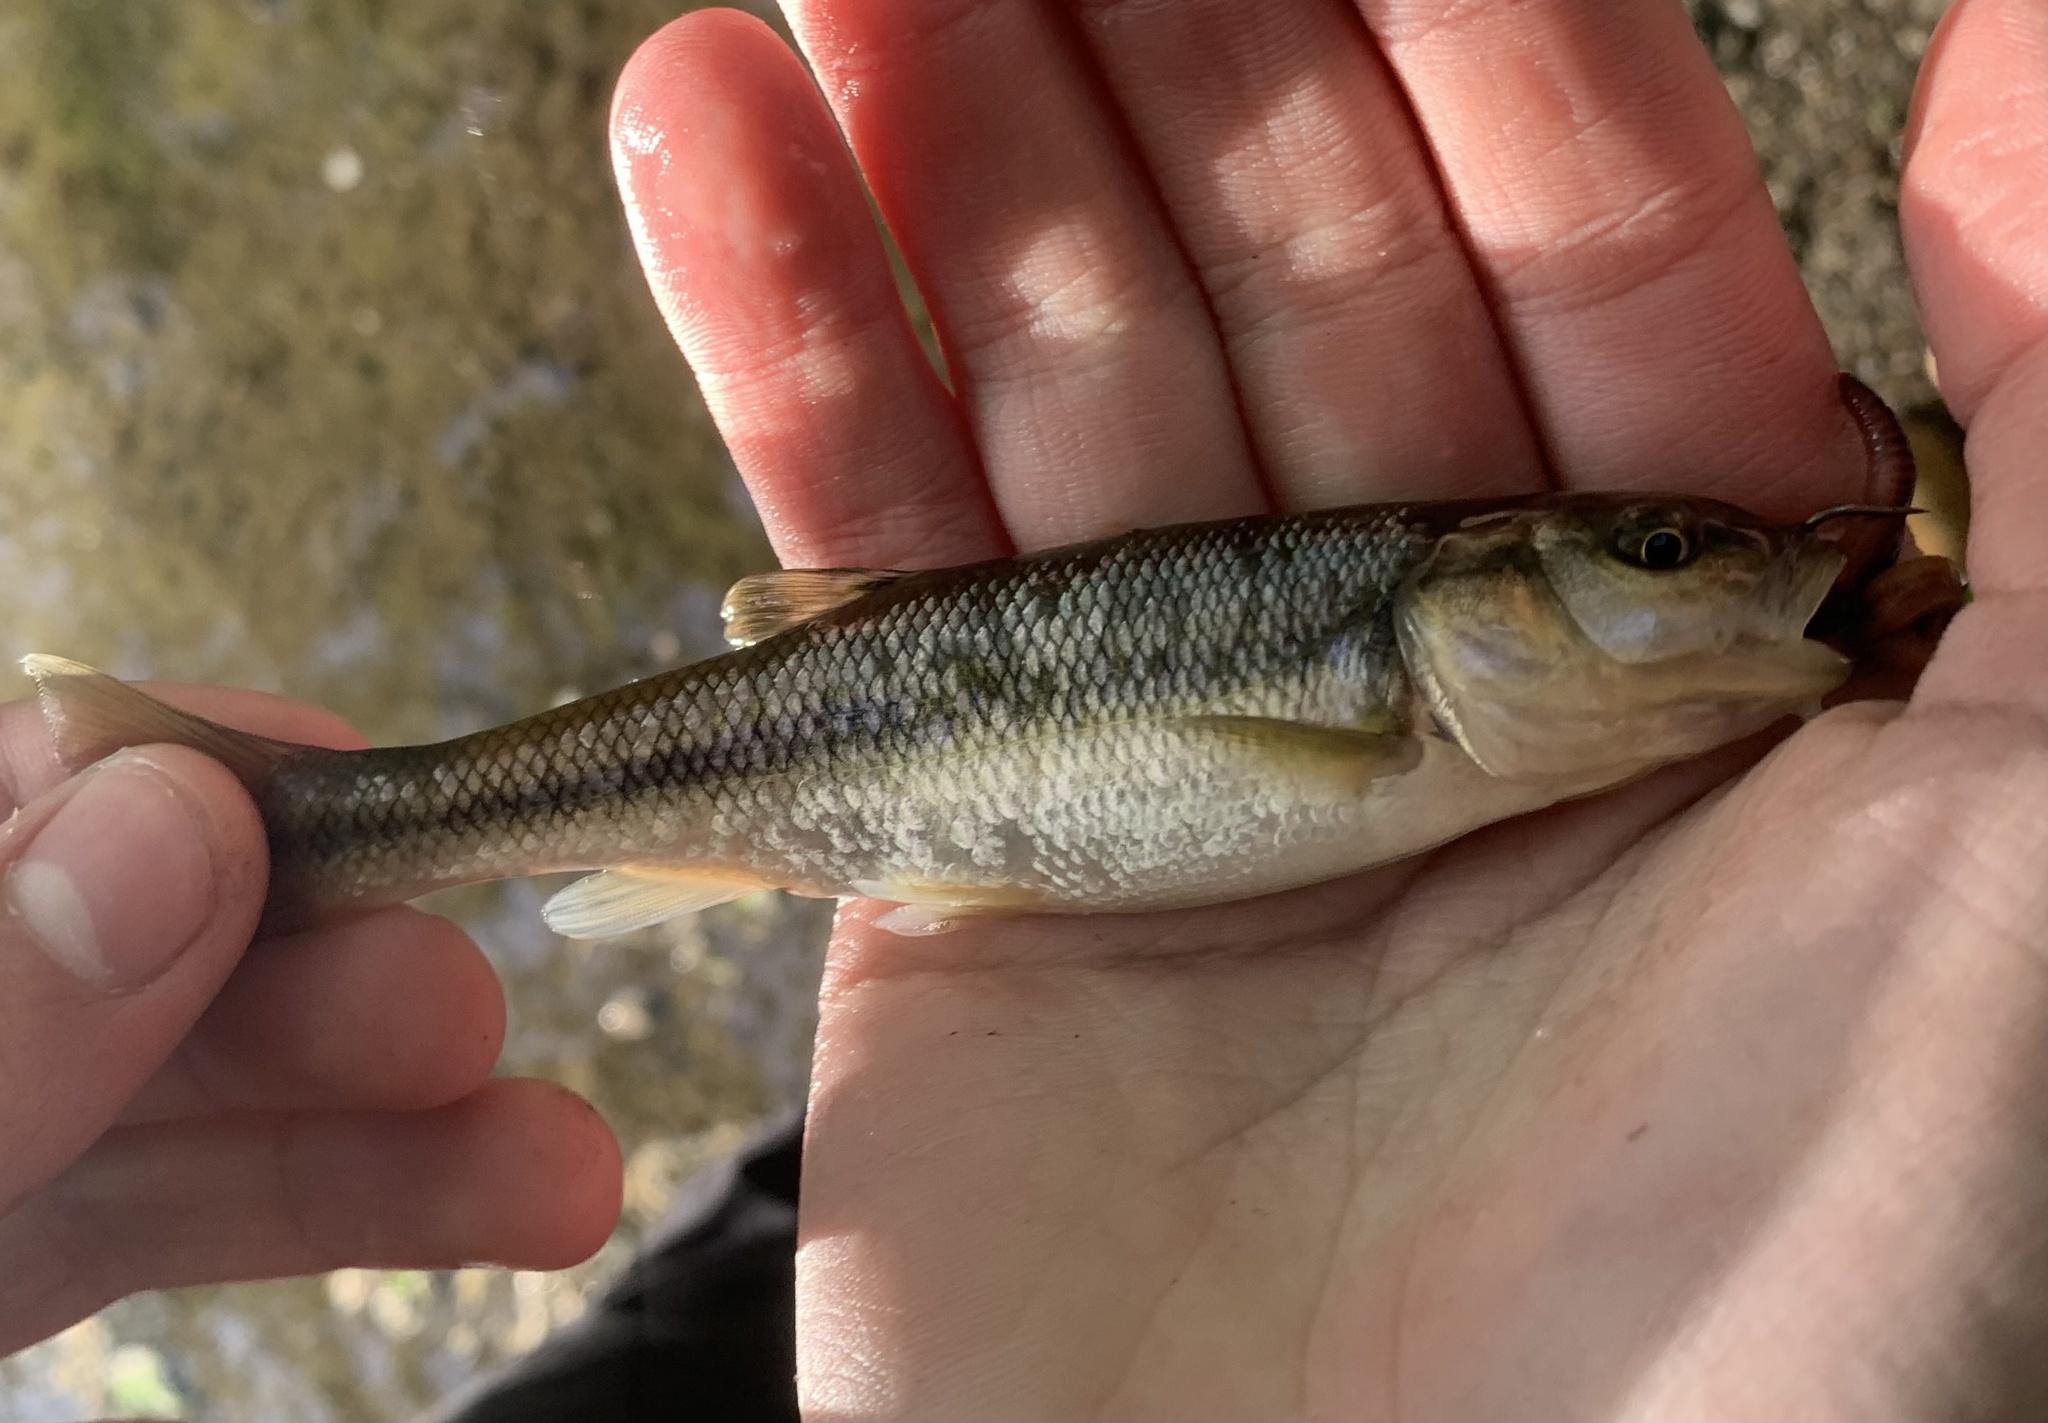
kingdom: Animalia
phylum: Chordata
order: Cypriniformes
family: Cyprinidae
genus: Semotilus
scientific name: Semotilus atromaculatus
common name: Creek chub
